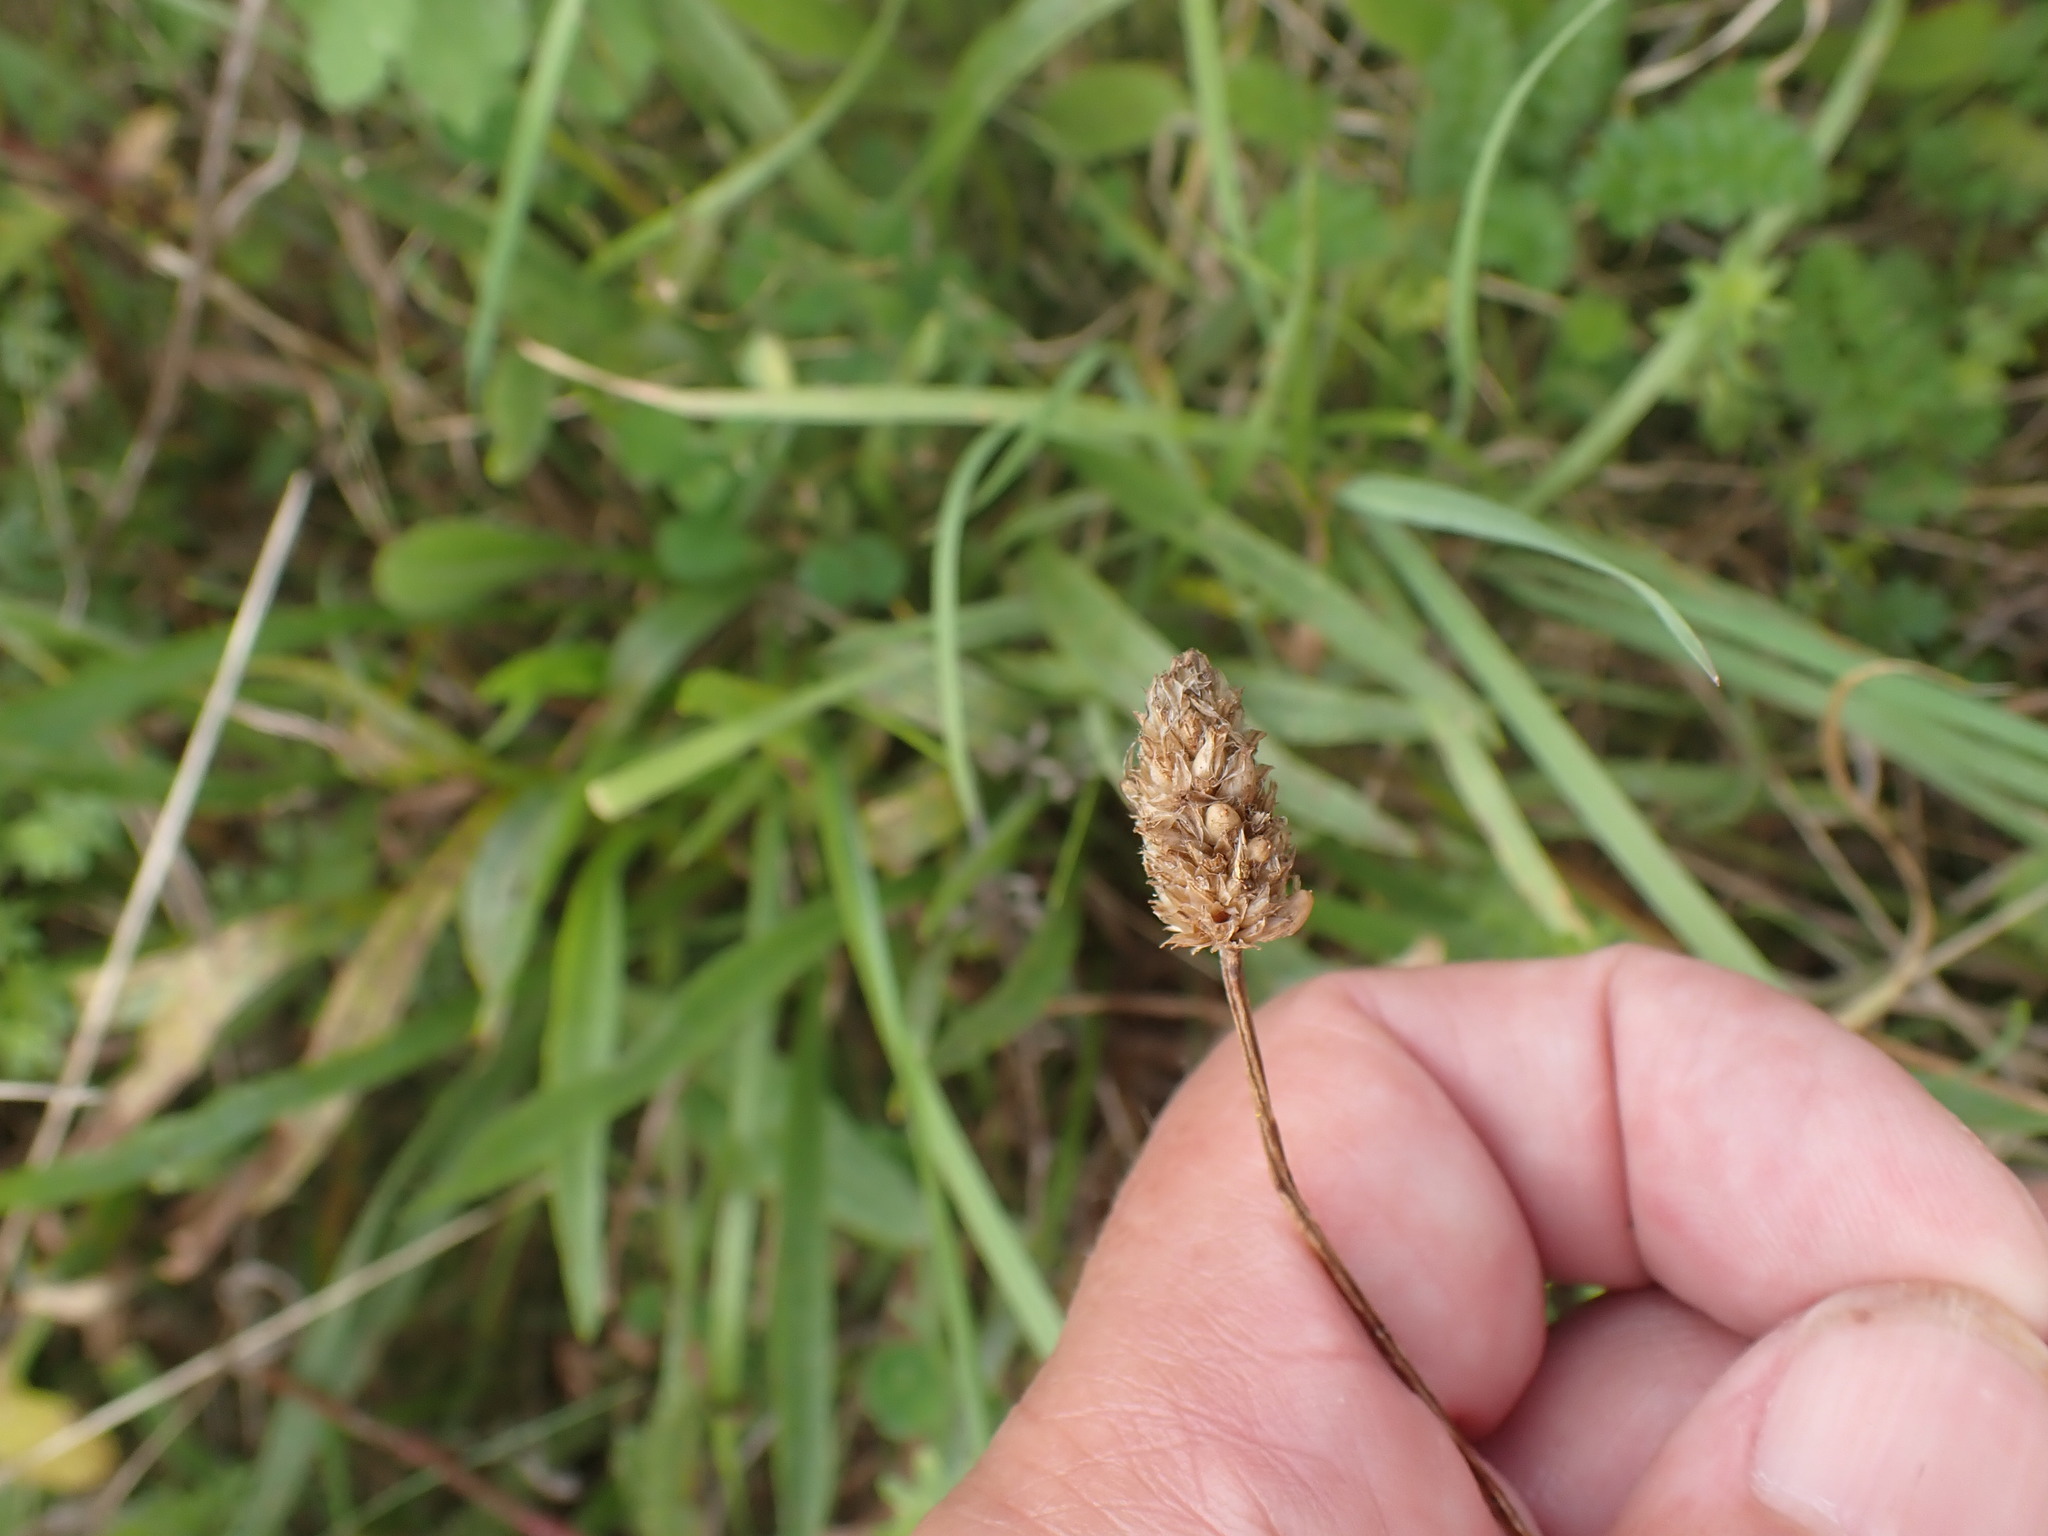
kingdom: Plantae
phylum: Tracheophyta
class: Magnoliopsida
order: Lamiales
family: Plantaginaceae
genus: Plantago
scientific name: Plantago lanceolata
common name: Ribwort plantain
